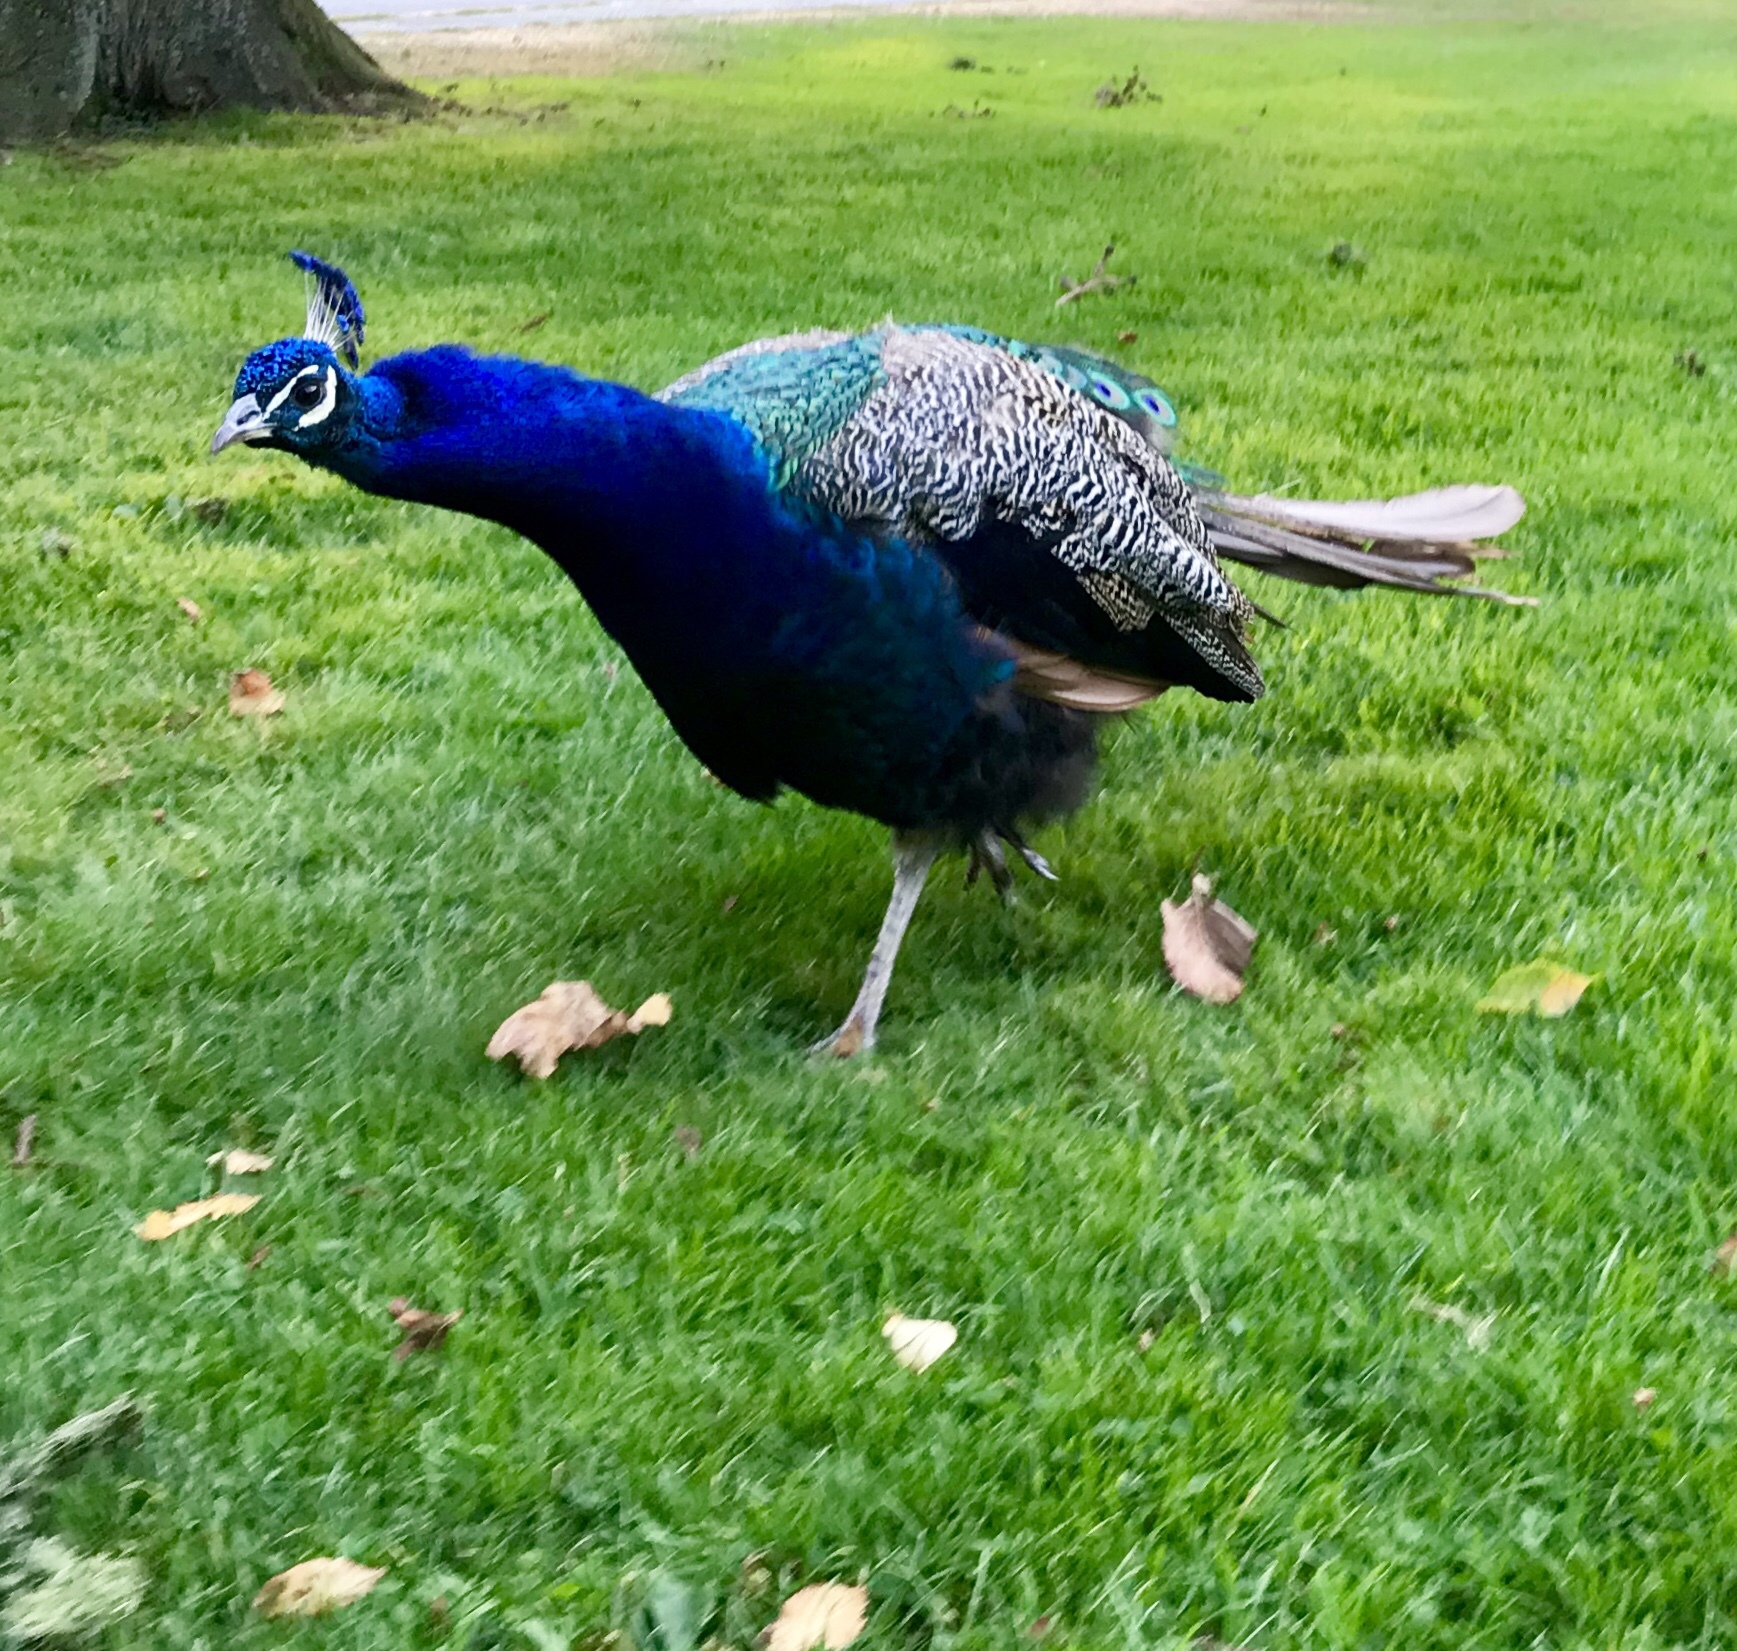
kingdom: Animalia
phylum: Chordata
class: Aves
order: Galliformes
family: Phasianidae
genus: Pavo
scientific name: Pavo cristatus
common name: Indian peafowl
